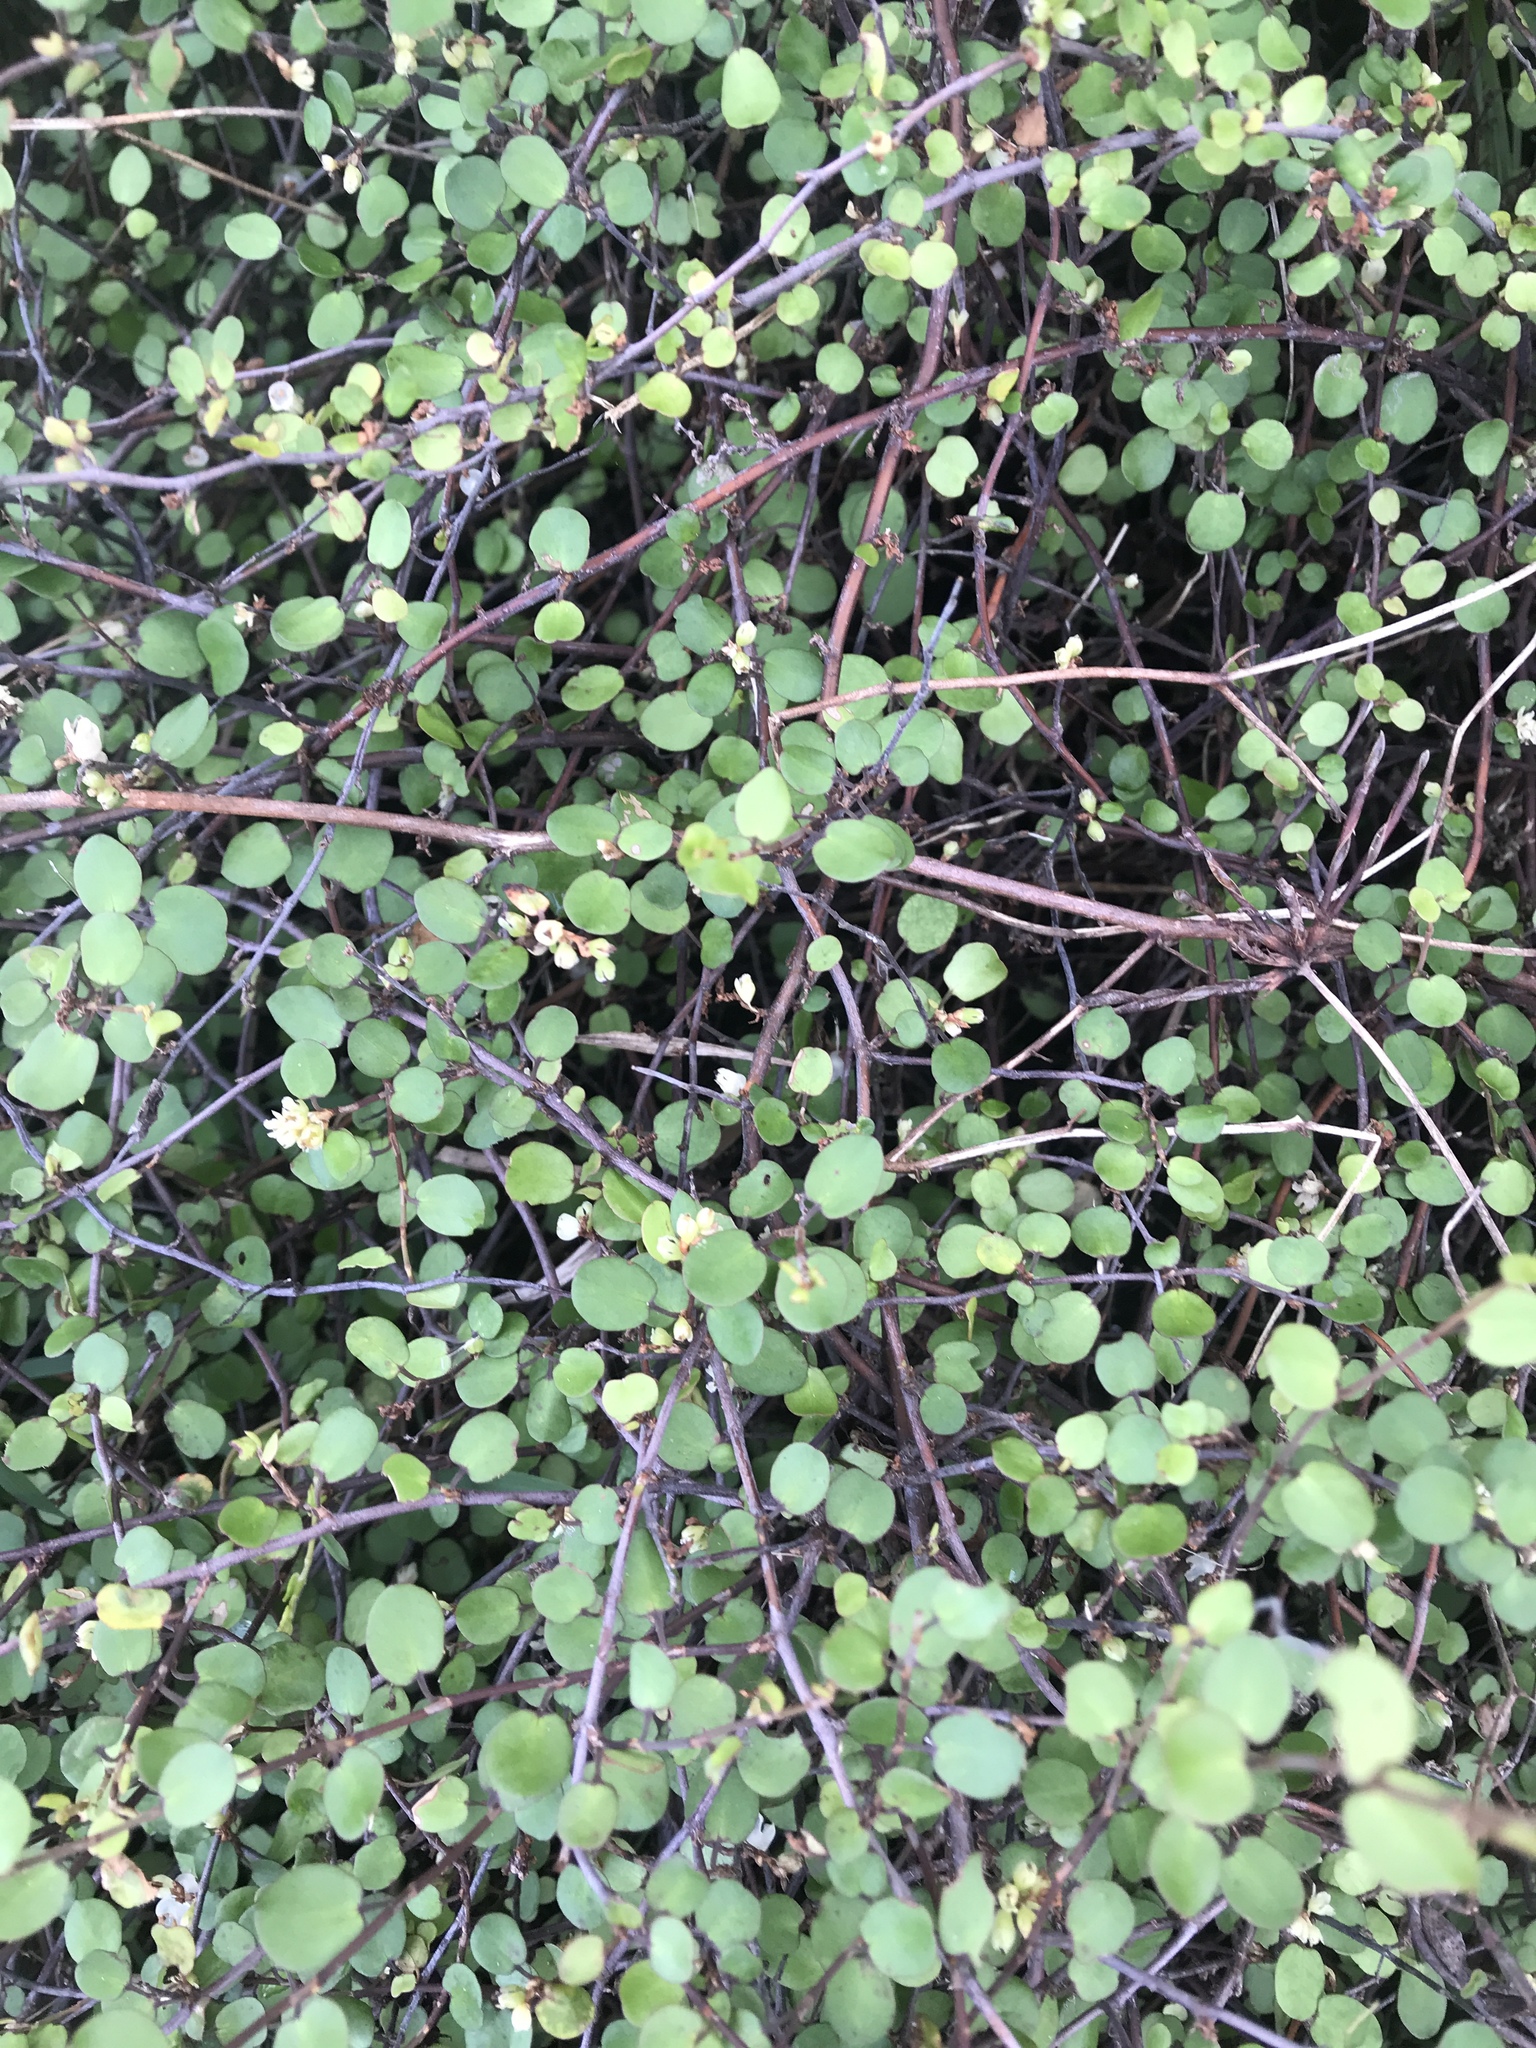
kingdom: Plantae
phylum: Tracheophyta
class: Magnoliopsida
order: Caryophyllales
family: Polygonaceae
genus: Muehlenbeckia
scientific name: Muehlenbeckia complexa
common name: Wireplant
